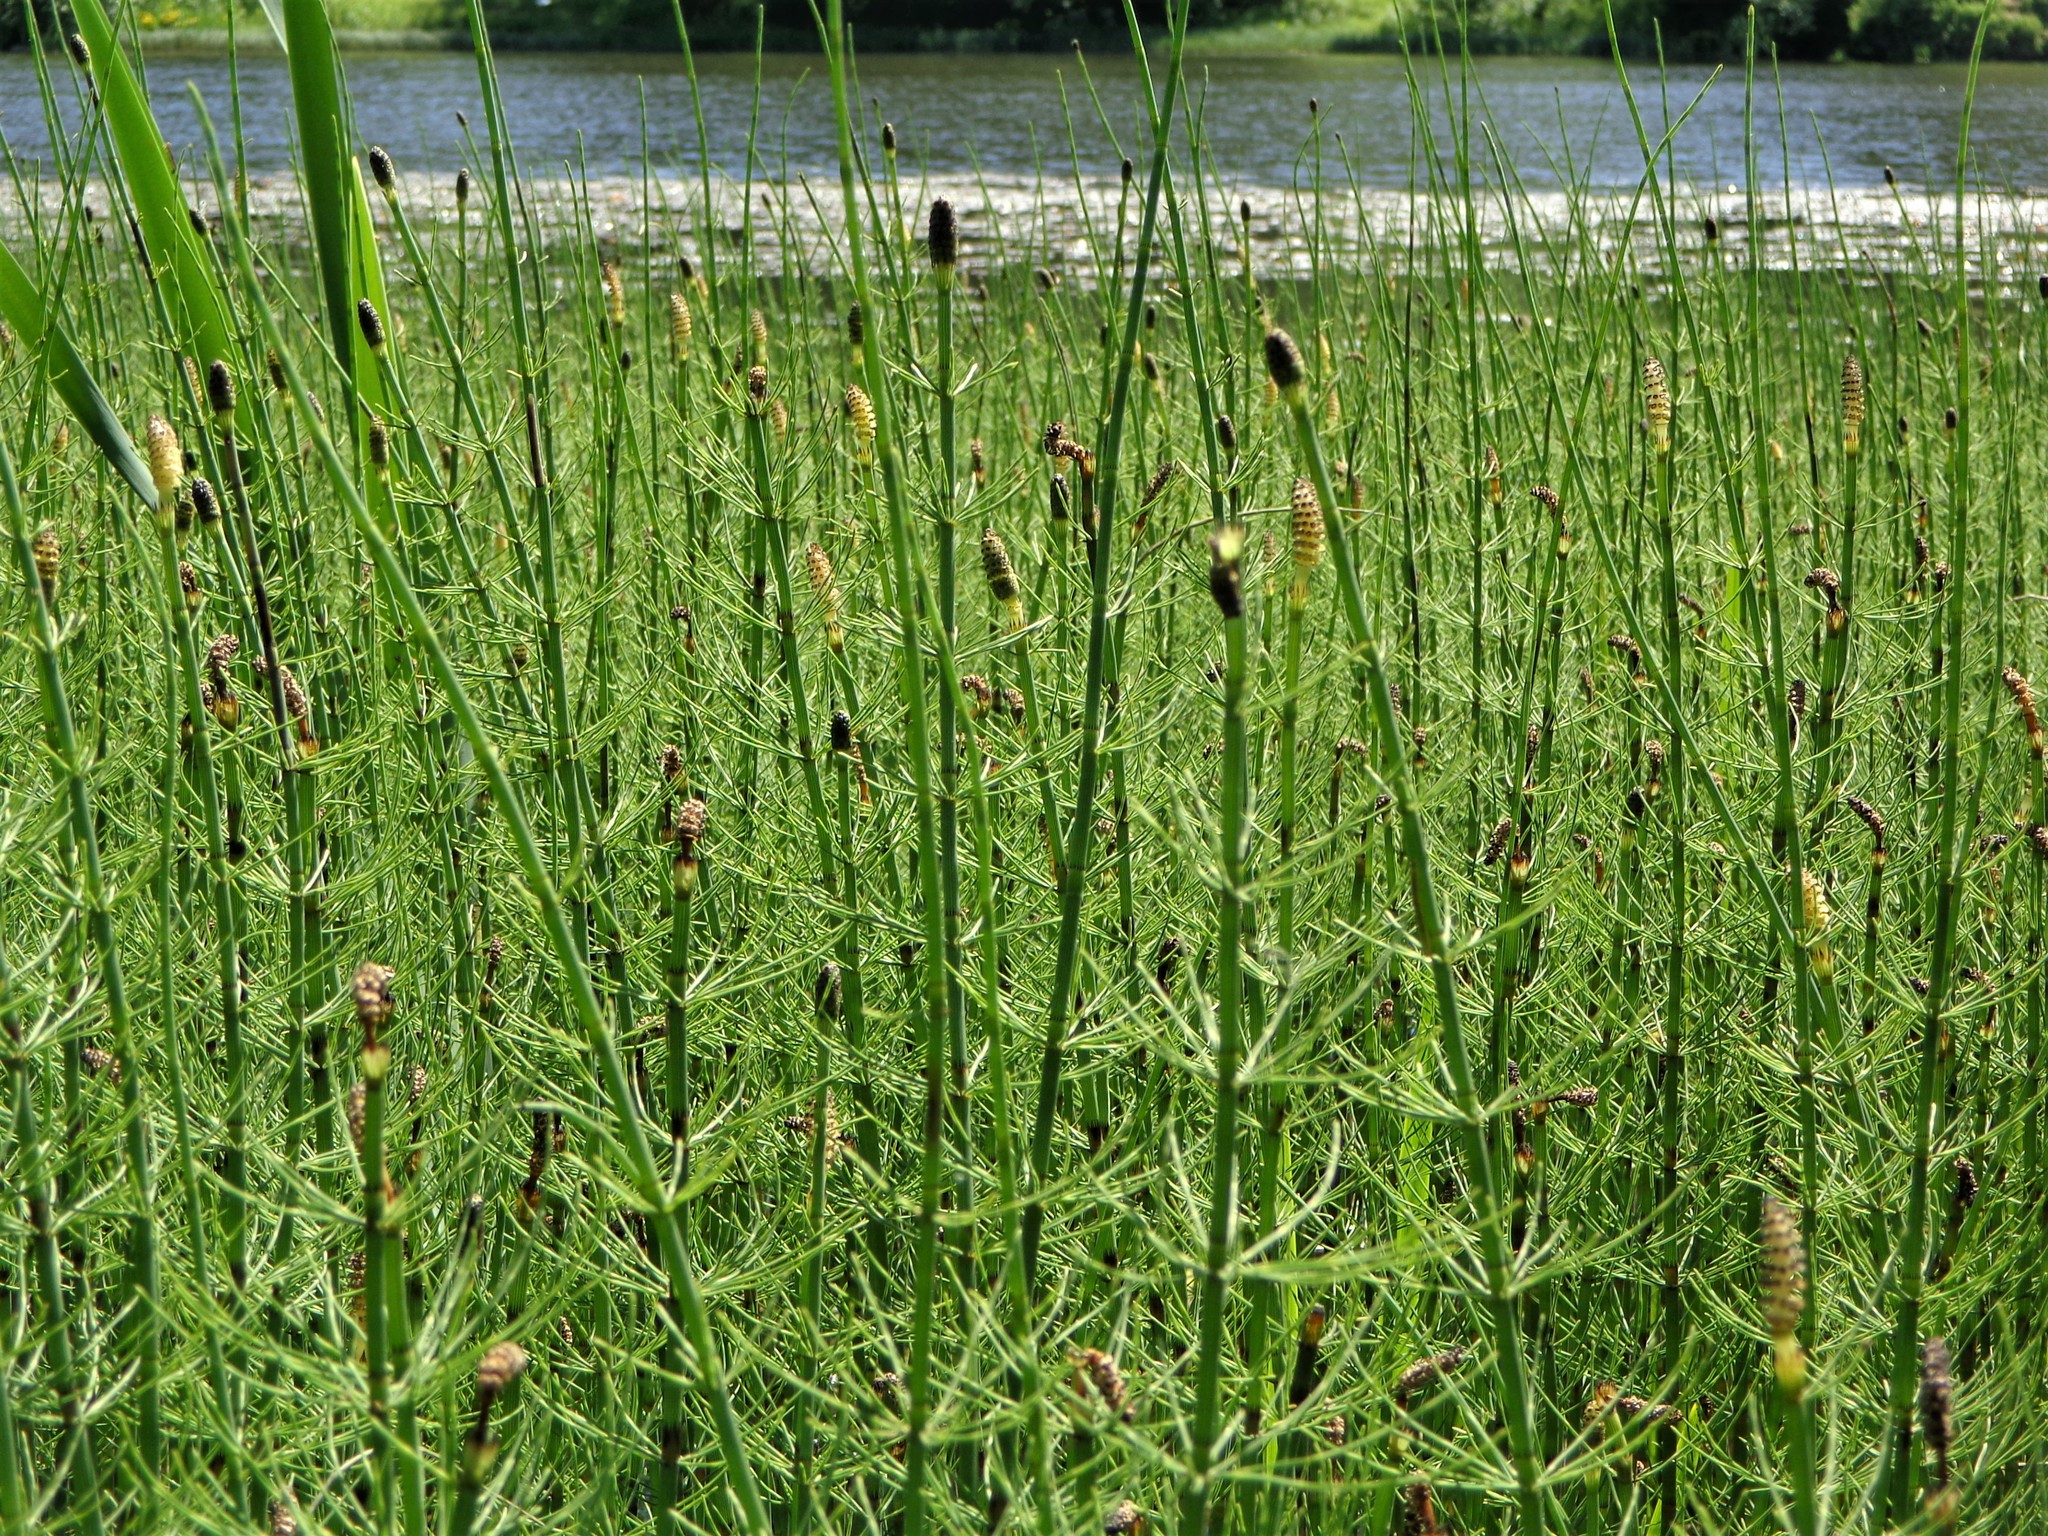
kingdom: Plantae
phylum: Tracheophyta
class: Polypodiopsida
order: Equisetales
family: Equisetaceae
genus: Equisetum
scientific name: Equisetum fluviatile
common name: Water horsetail
